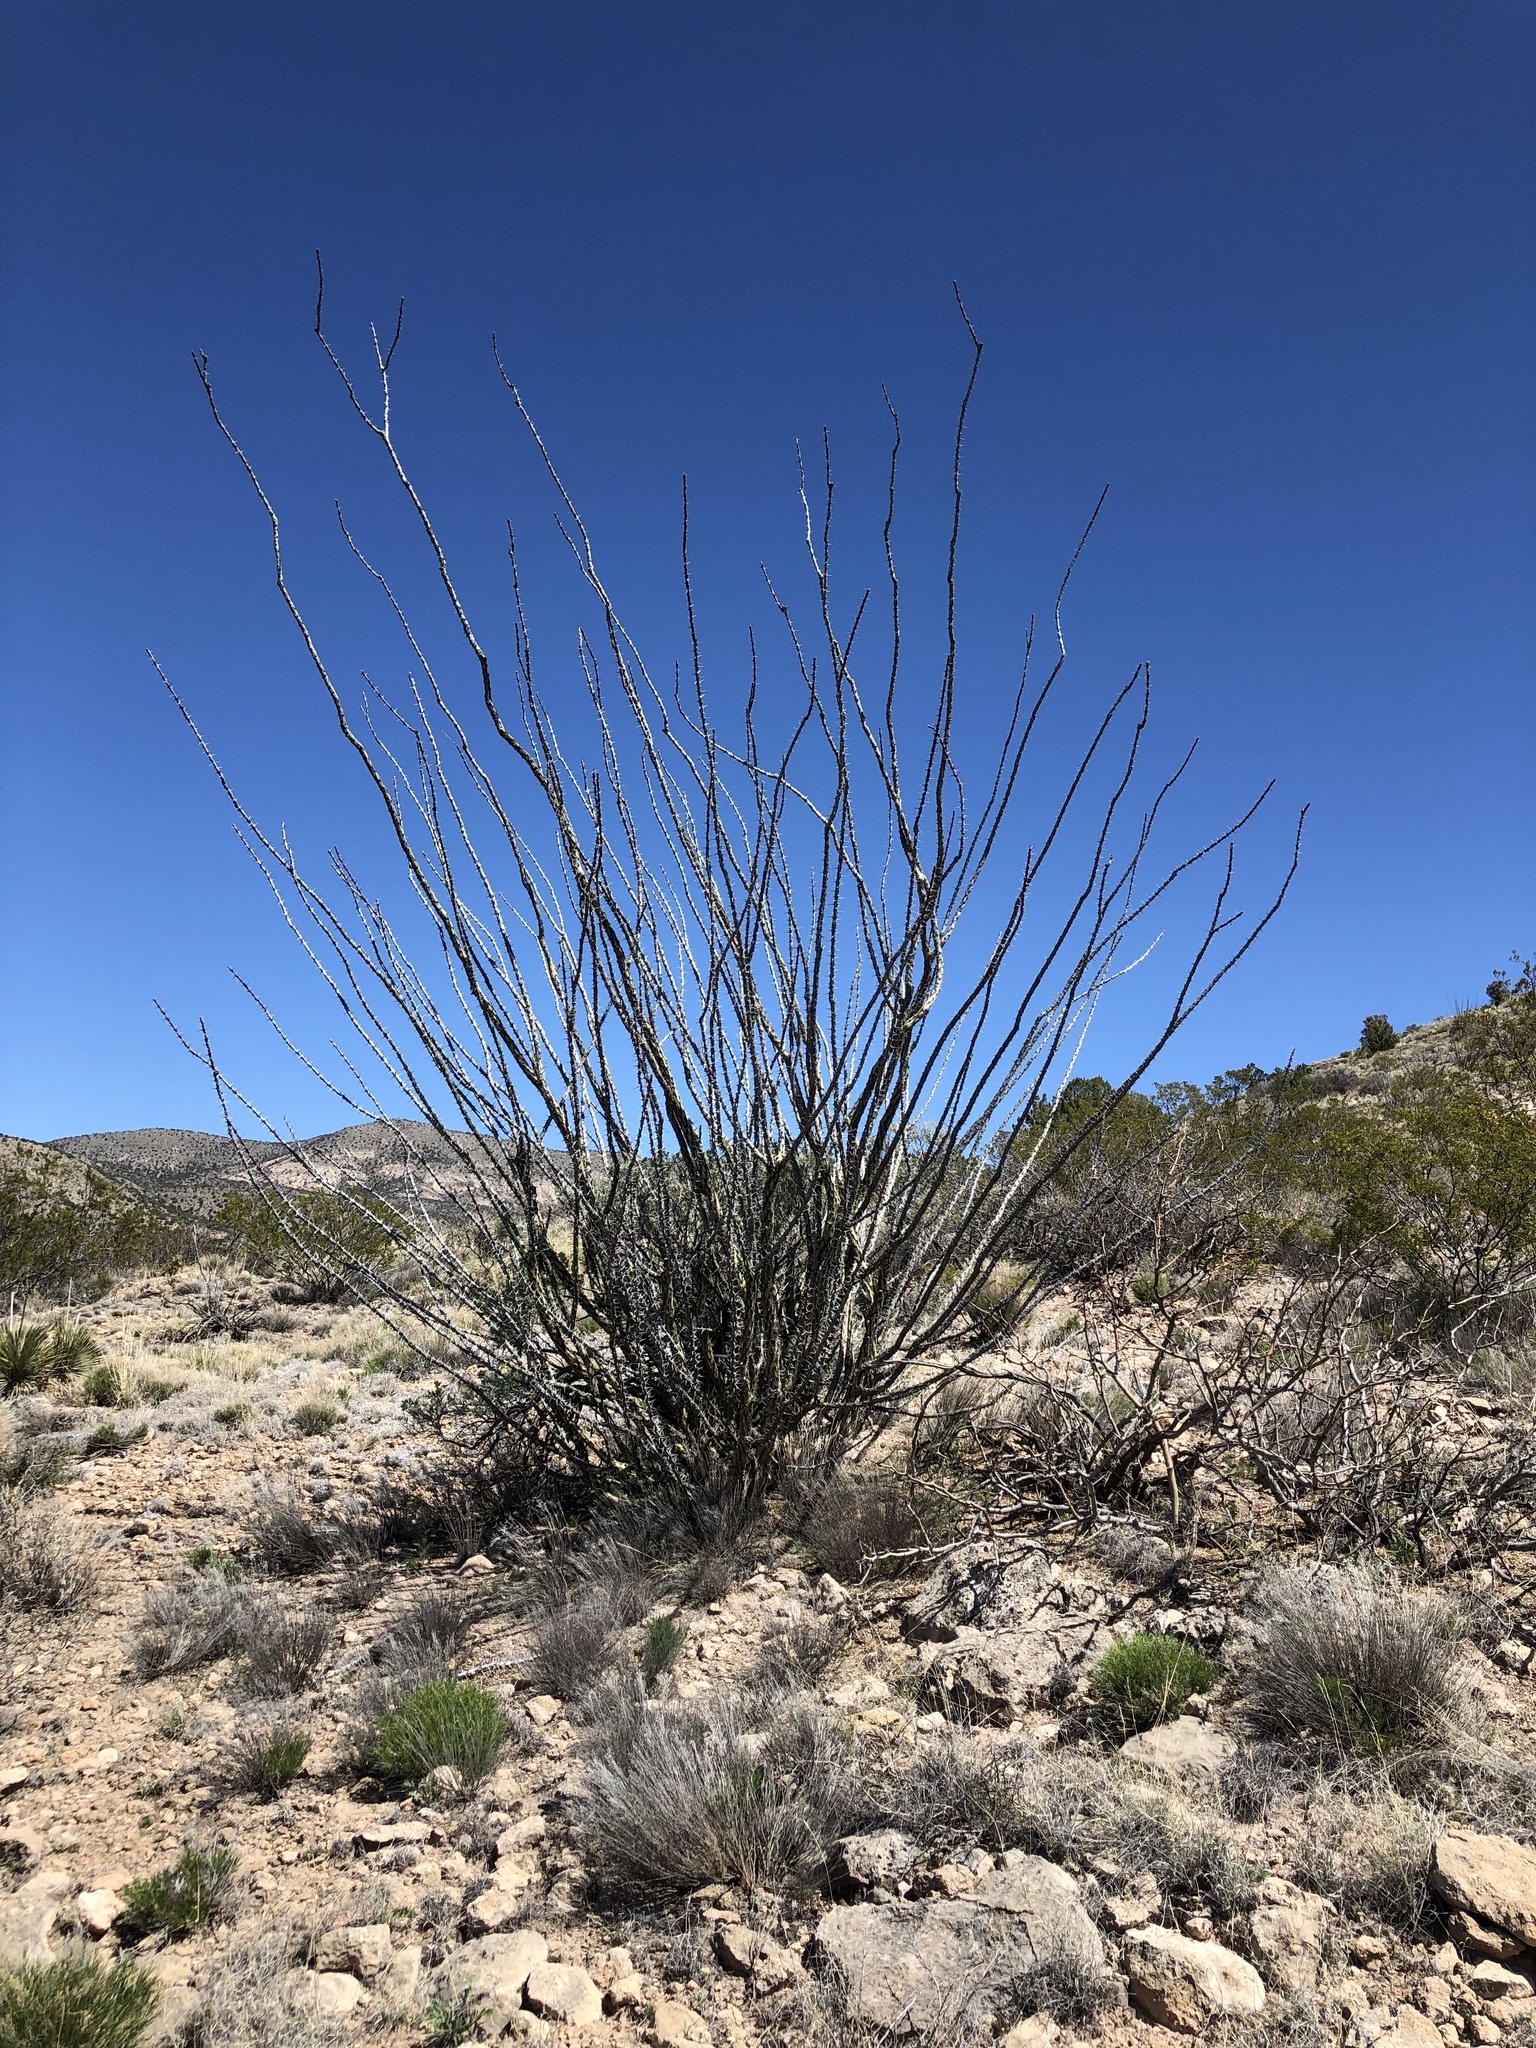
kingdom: Plantae
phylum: Tracheophyta
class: Magnoliopsida
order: Ericales
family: Fouquieriaceae
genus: Fouquieria
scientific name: Fouquieria splendens
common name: Vine-cactus
